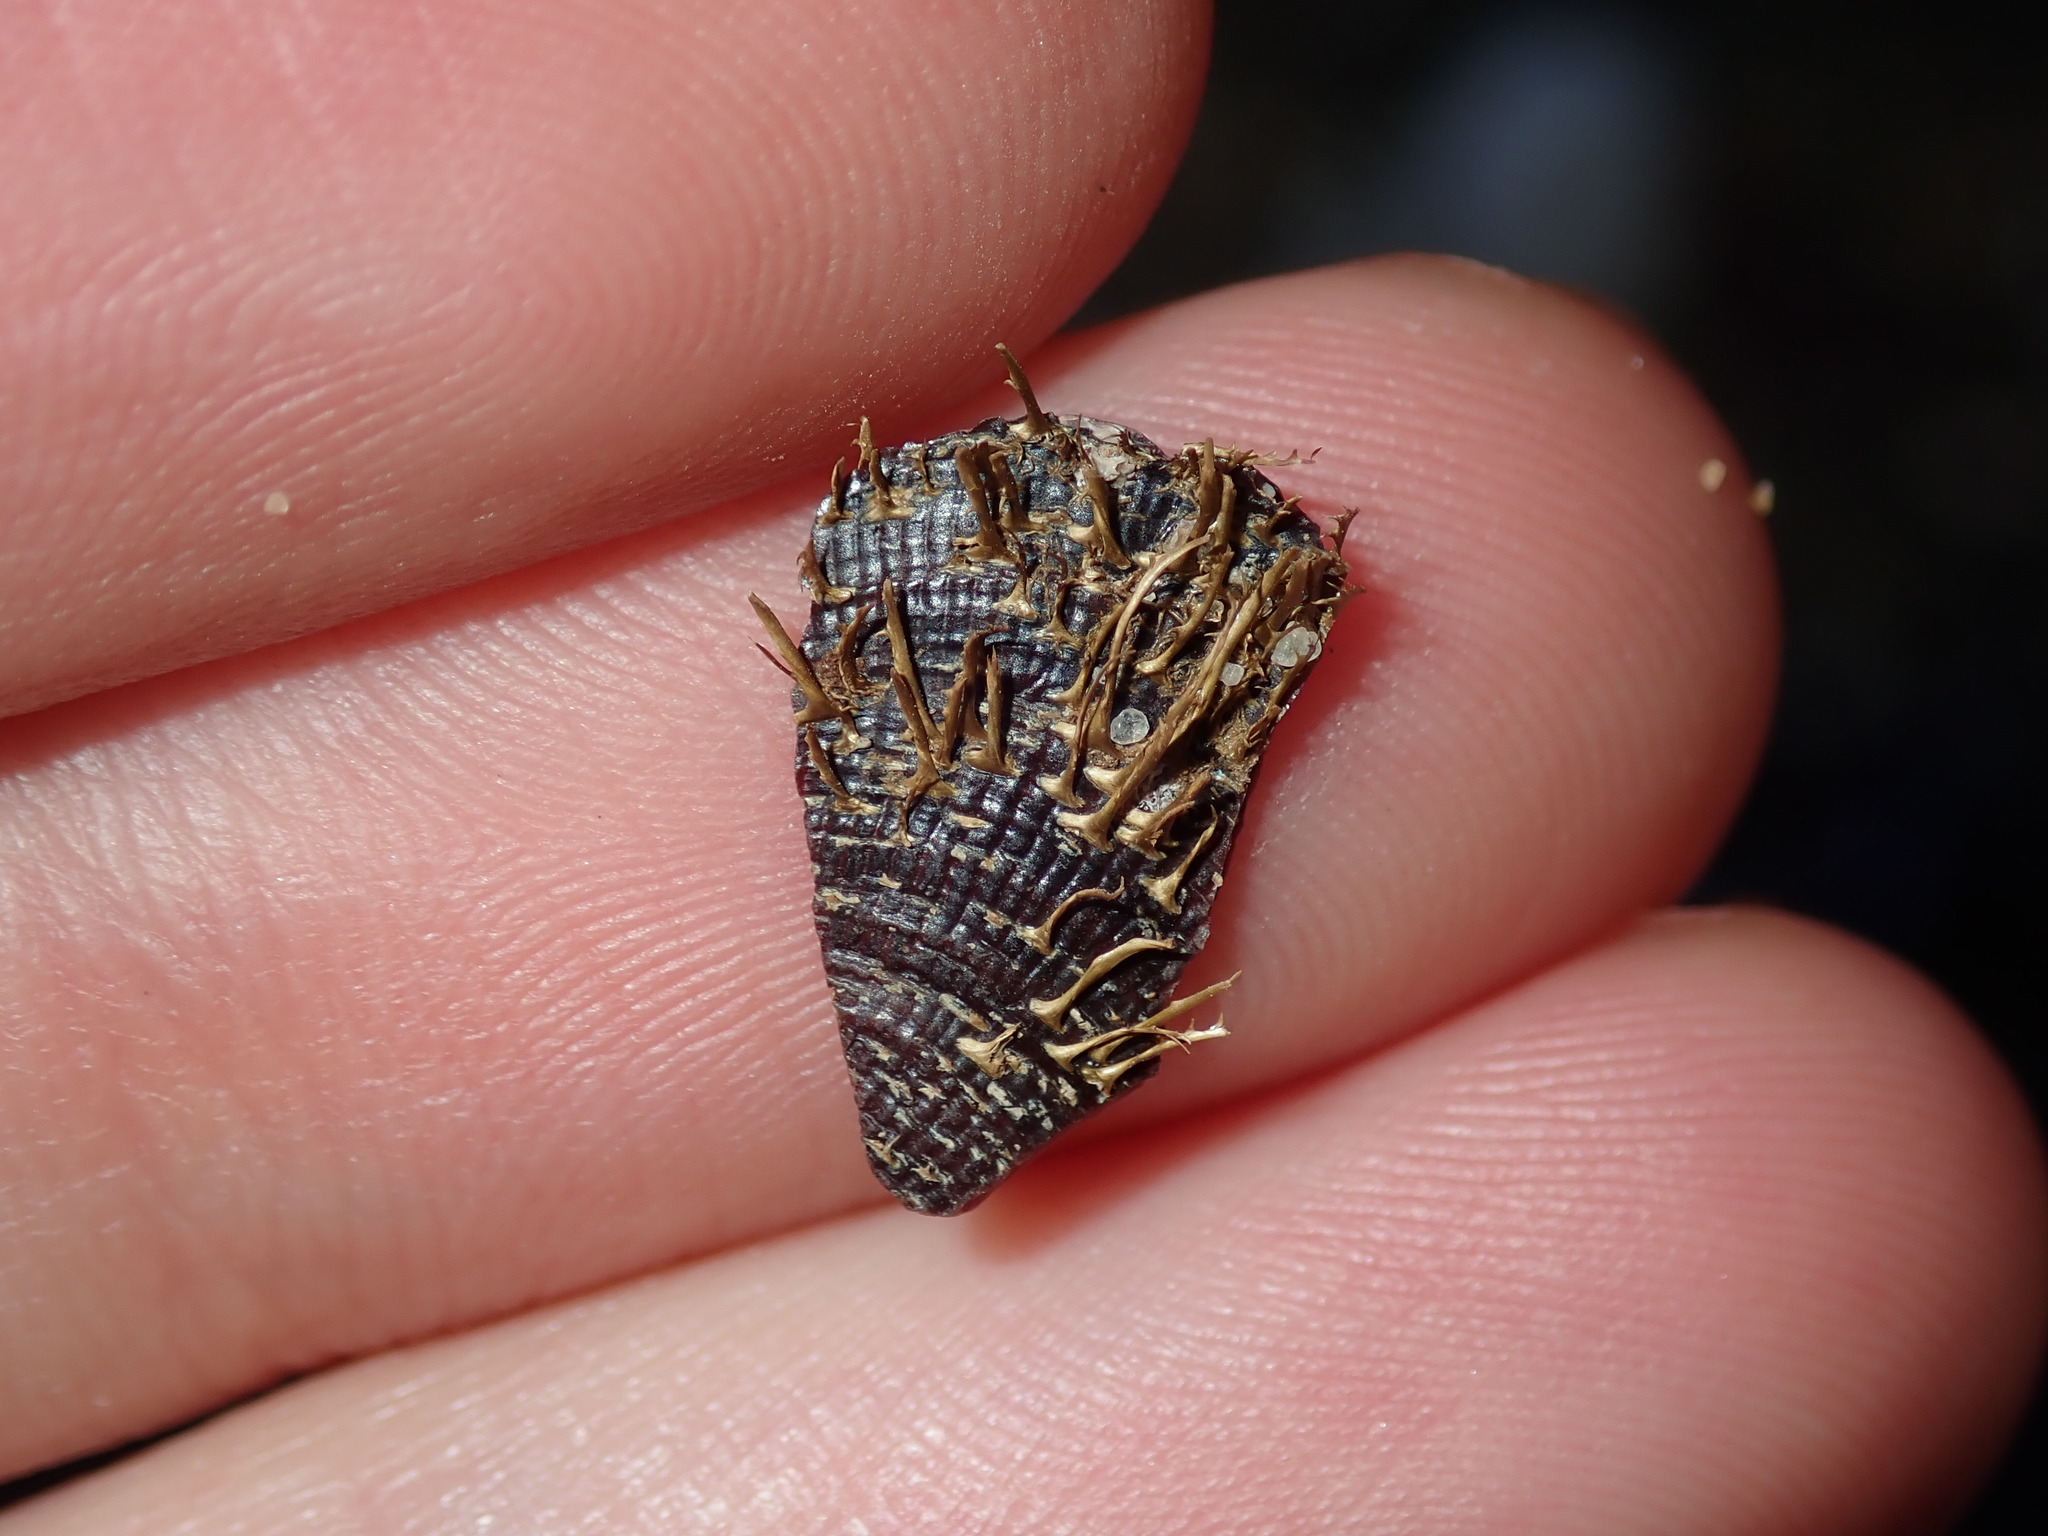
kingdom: Animalia
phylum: Mollusca
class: Bivalvia
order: Mytilida
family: Mytilidae
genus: Trichomya
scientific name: Trichomya hirsuta
